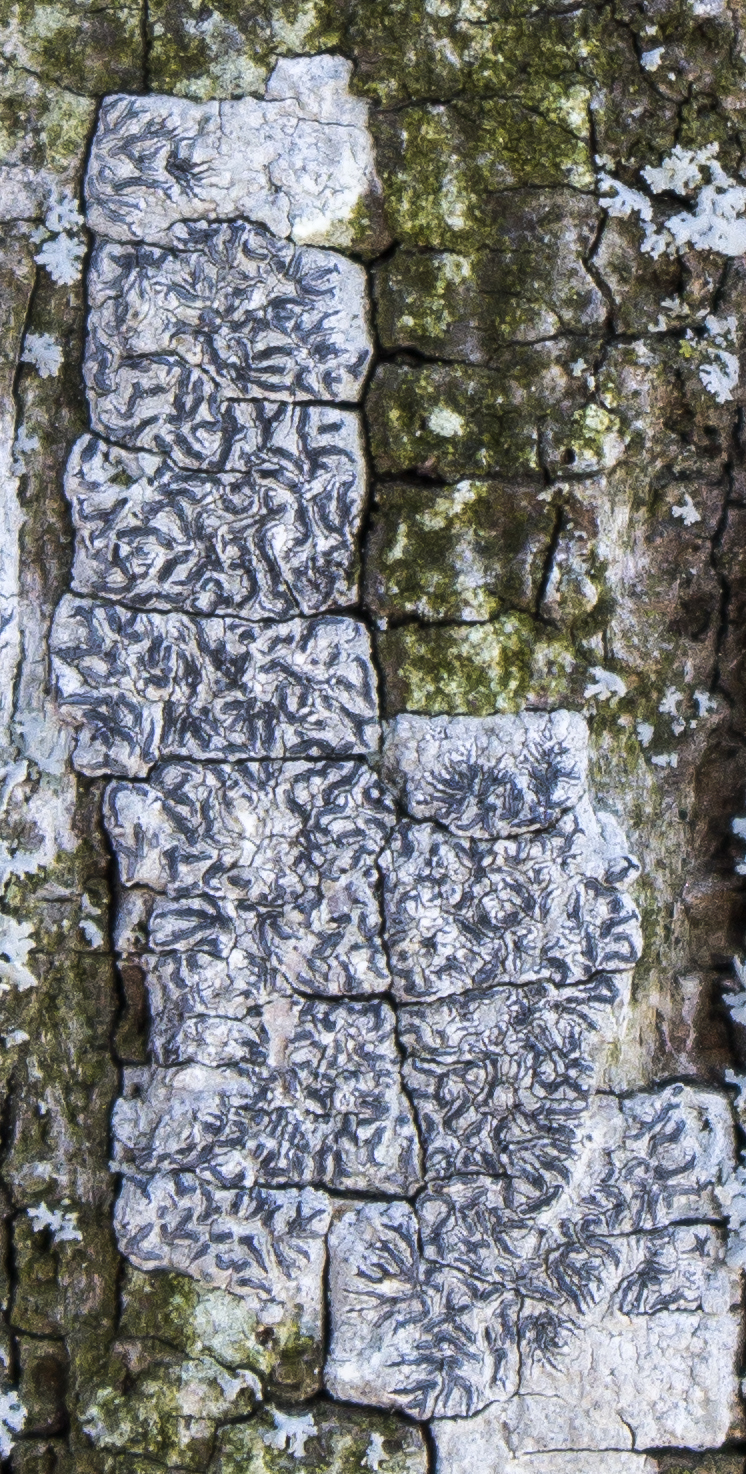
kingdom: Fungi
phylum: Ascomycota
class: Lecanoromycetes
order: Ostropales
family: Graphidaceae
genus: Graphis
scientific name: Graphis scripta
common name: Script lichen
